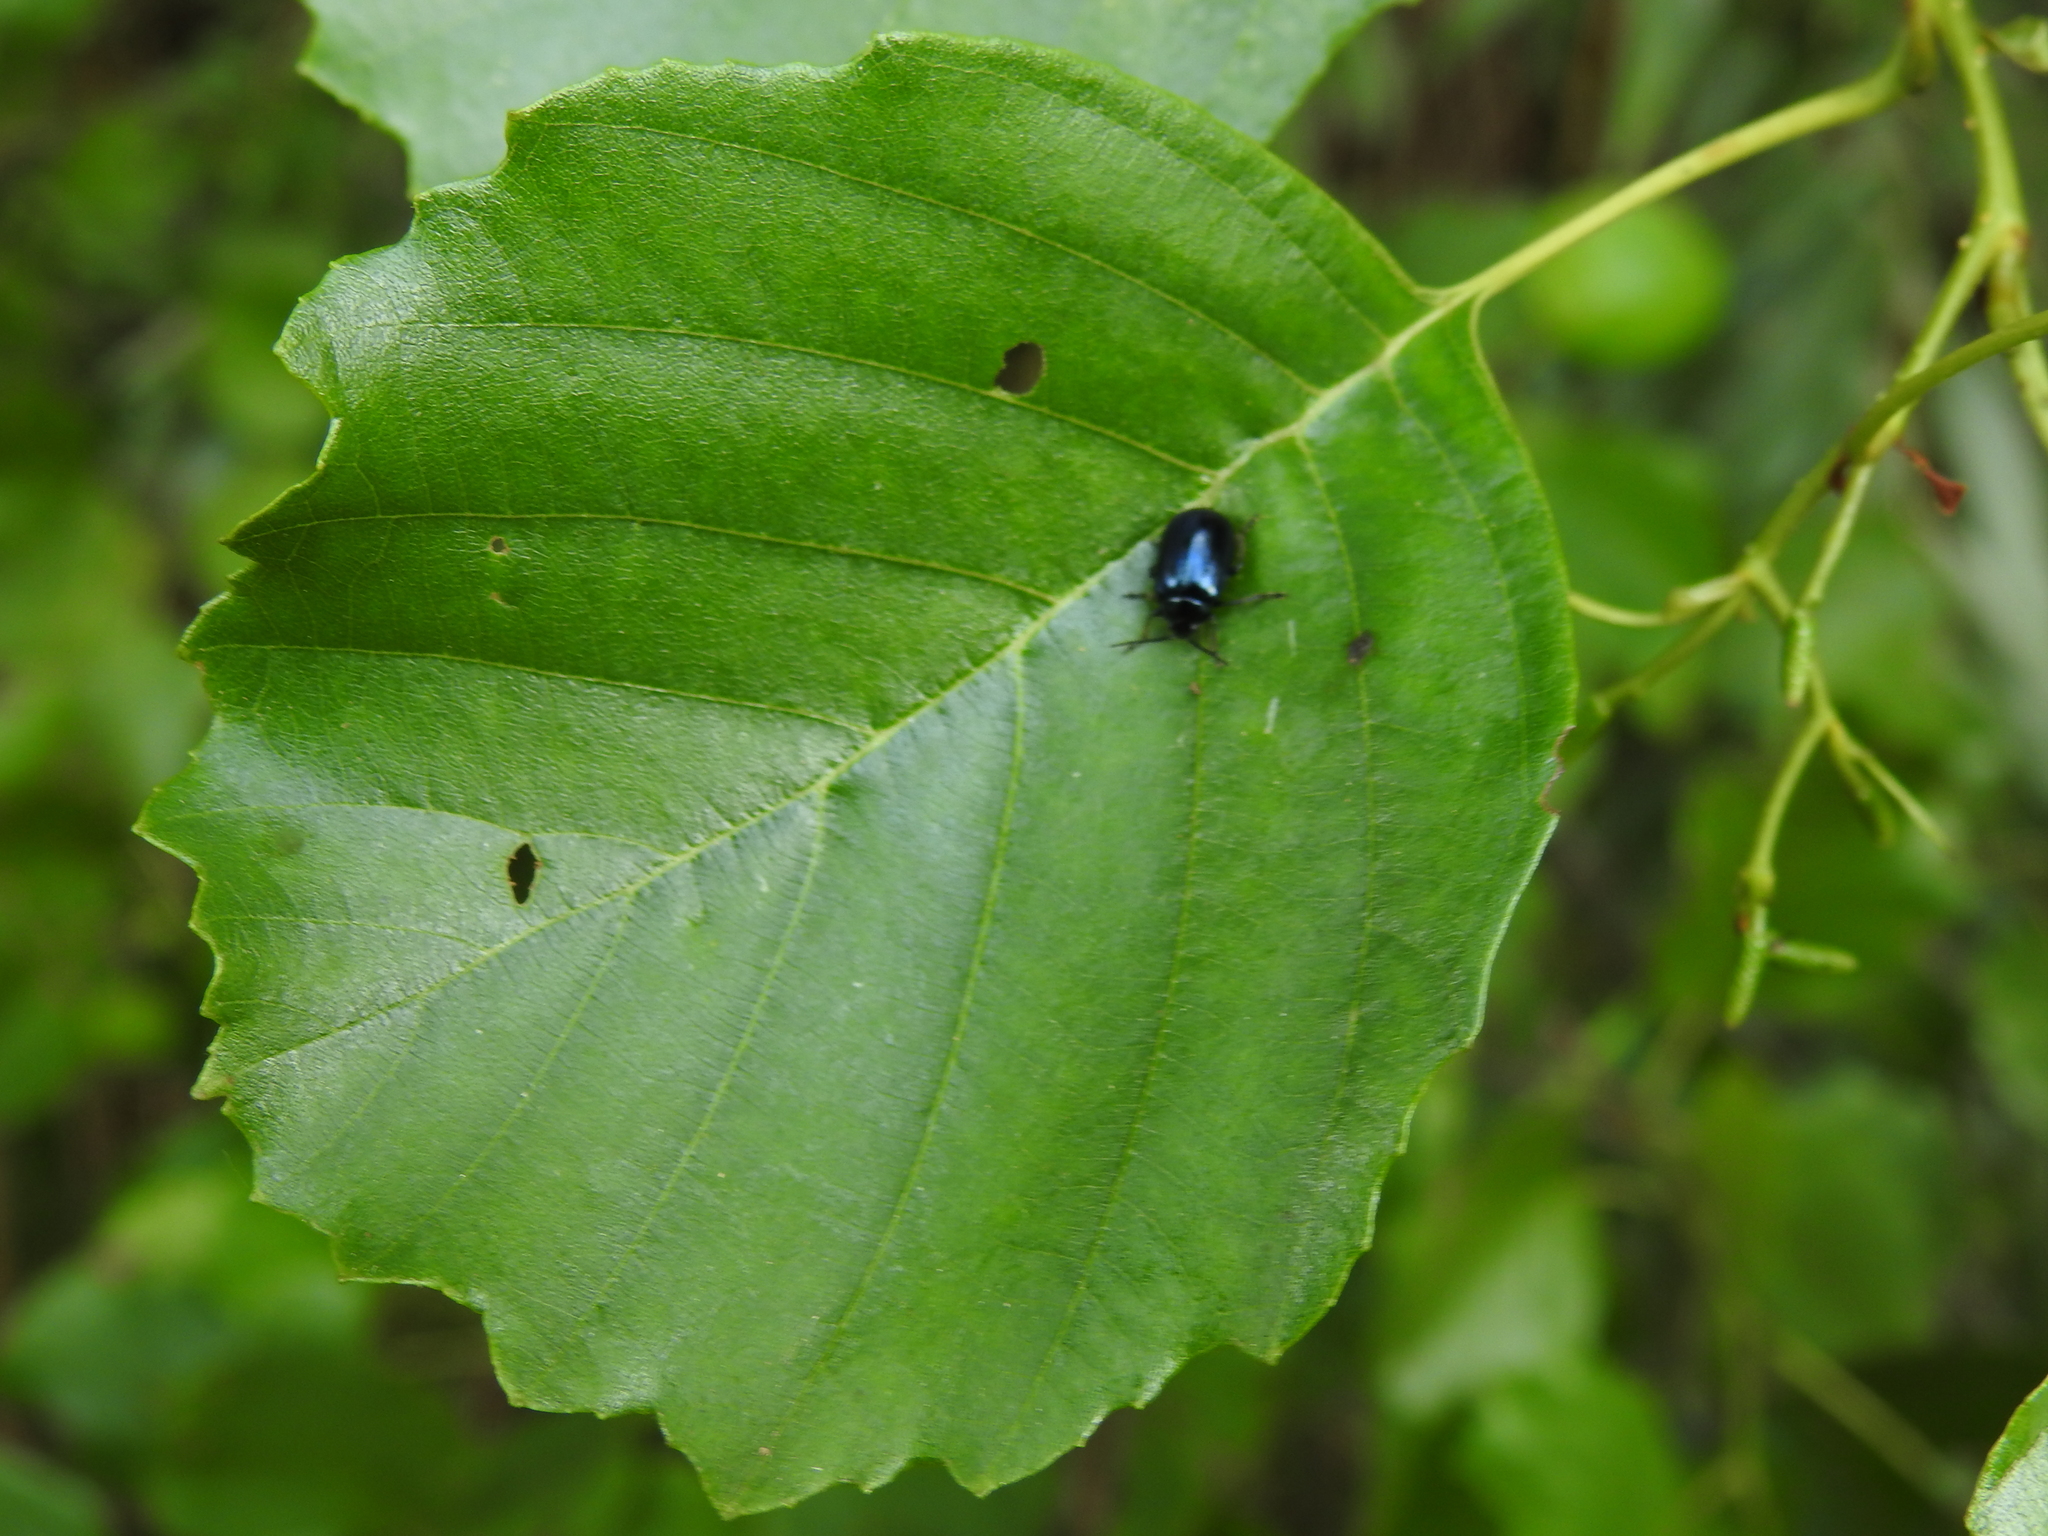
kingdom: Animalia
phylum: Arthropoda
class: Insecta
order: Coleoptera
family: Chrysomelidae
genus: Agelastica
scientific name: Agelastica alni
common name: Alder leaf beetle
